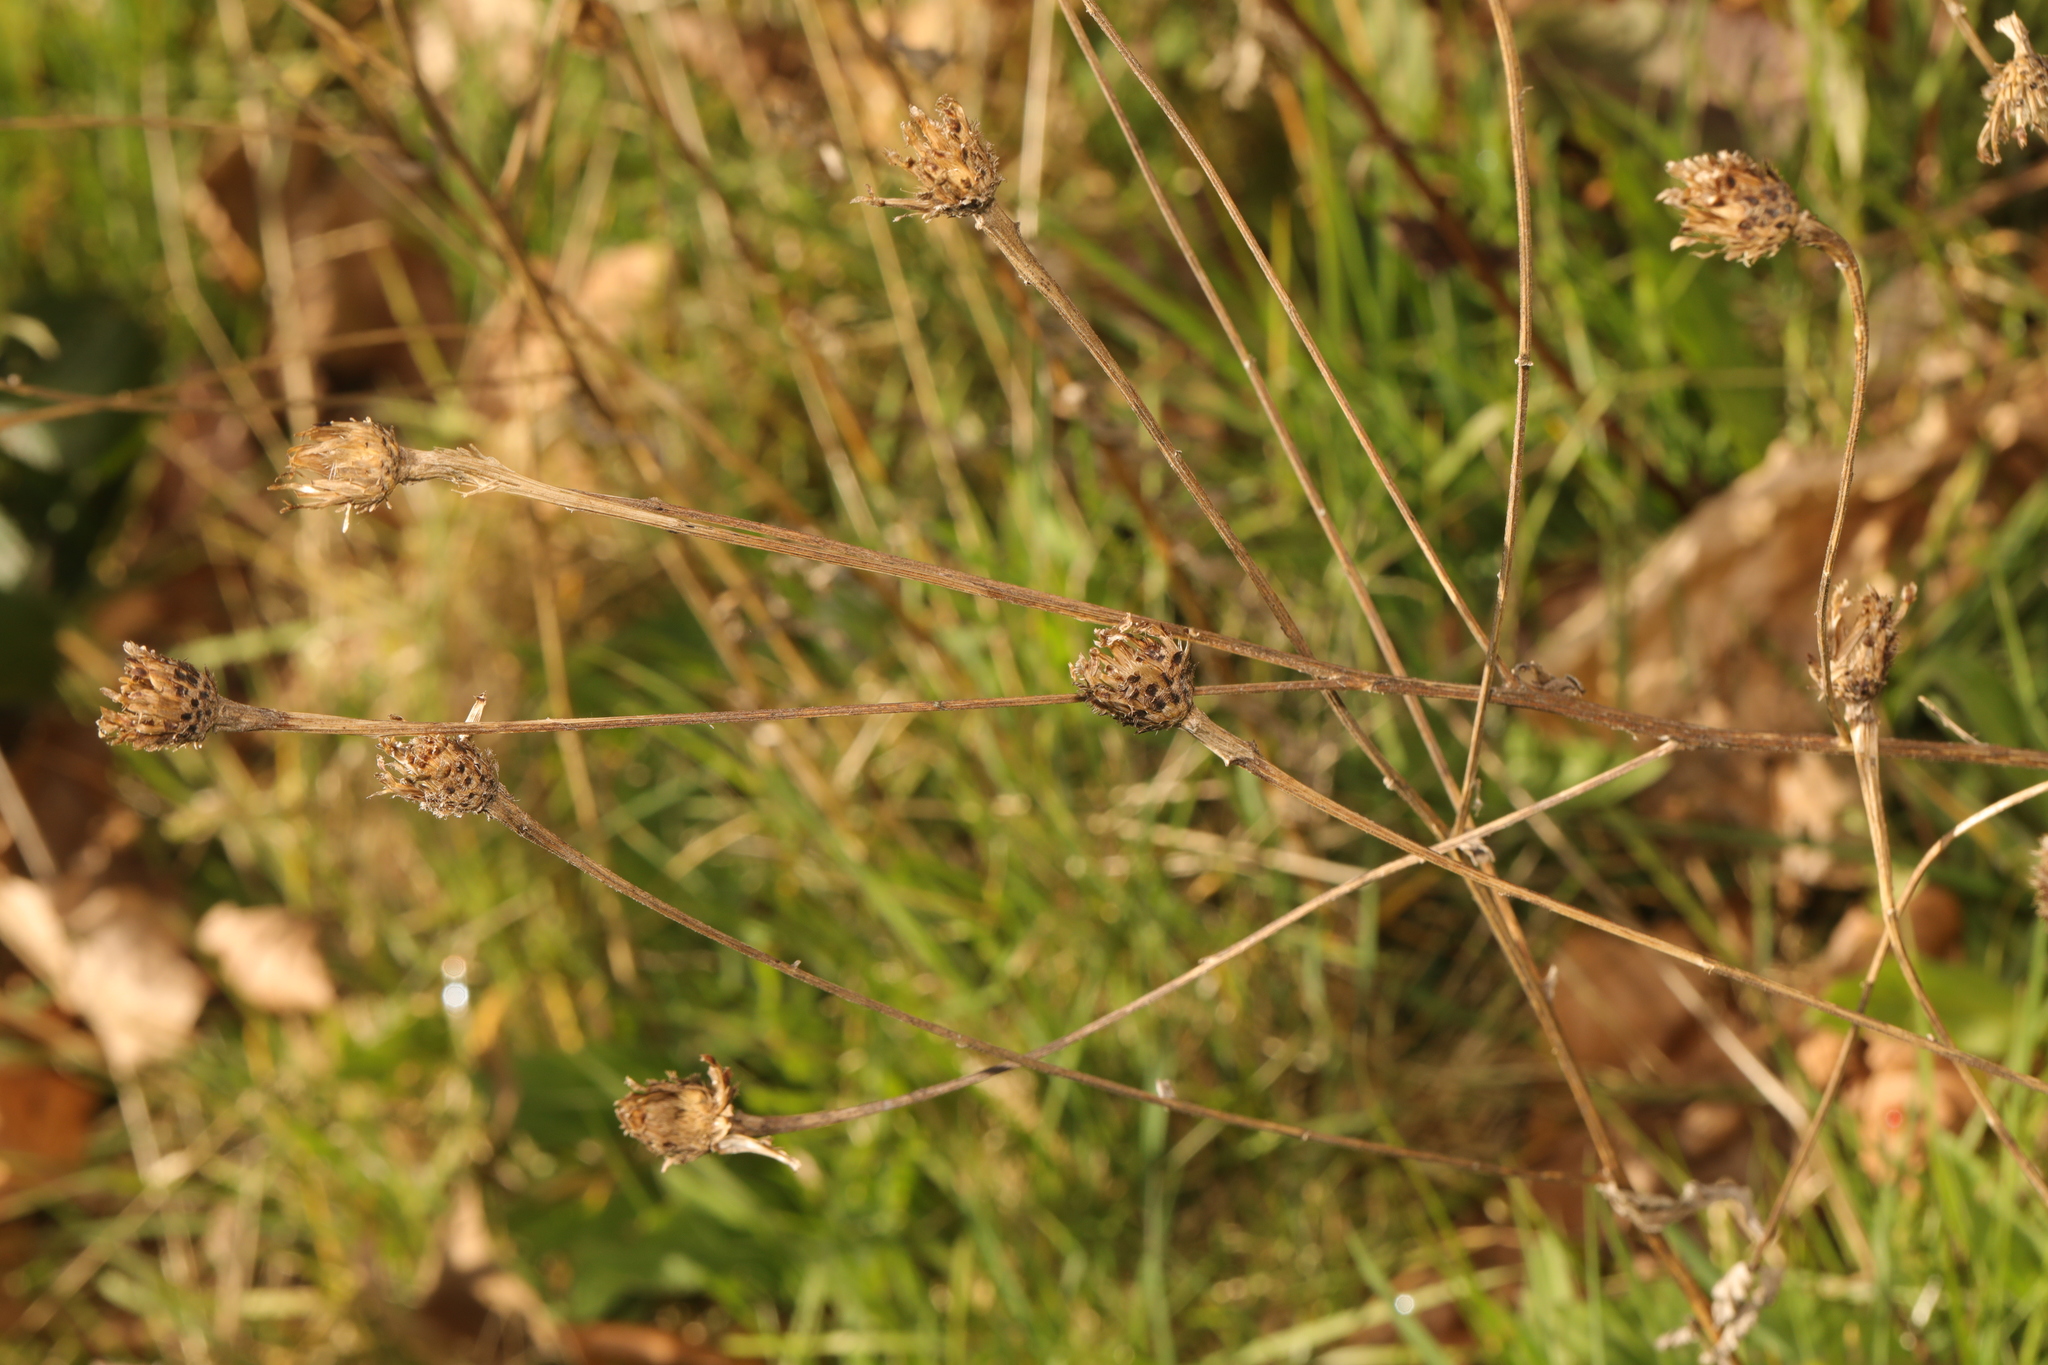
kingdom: Plantae
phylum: Tracheophyta
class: Magnoliopsida
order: Asterales
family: Asteraceae
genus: Centaurea
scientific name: Centaurea nigra
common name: Lesser knapweed
